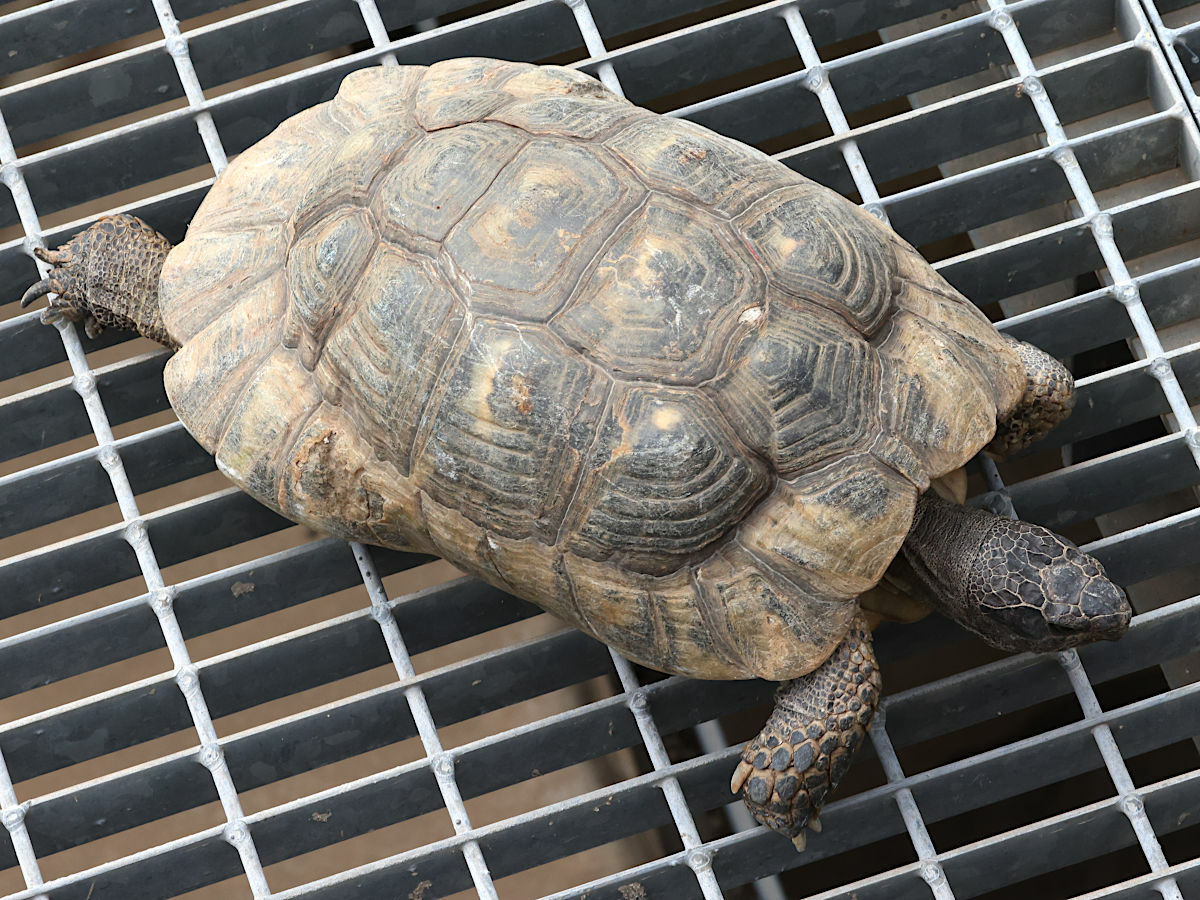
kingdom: Animalia
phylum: Chordata
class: Testudines
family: Testudinidae
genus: Testudo
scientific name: Testudo marginata
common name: Marginated tortoise
